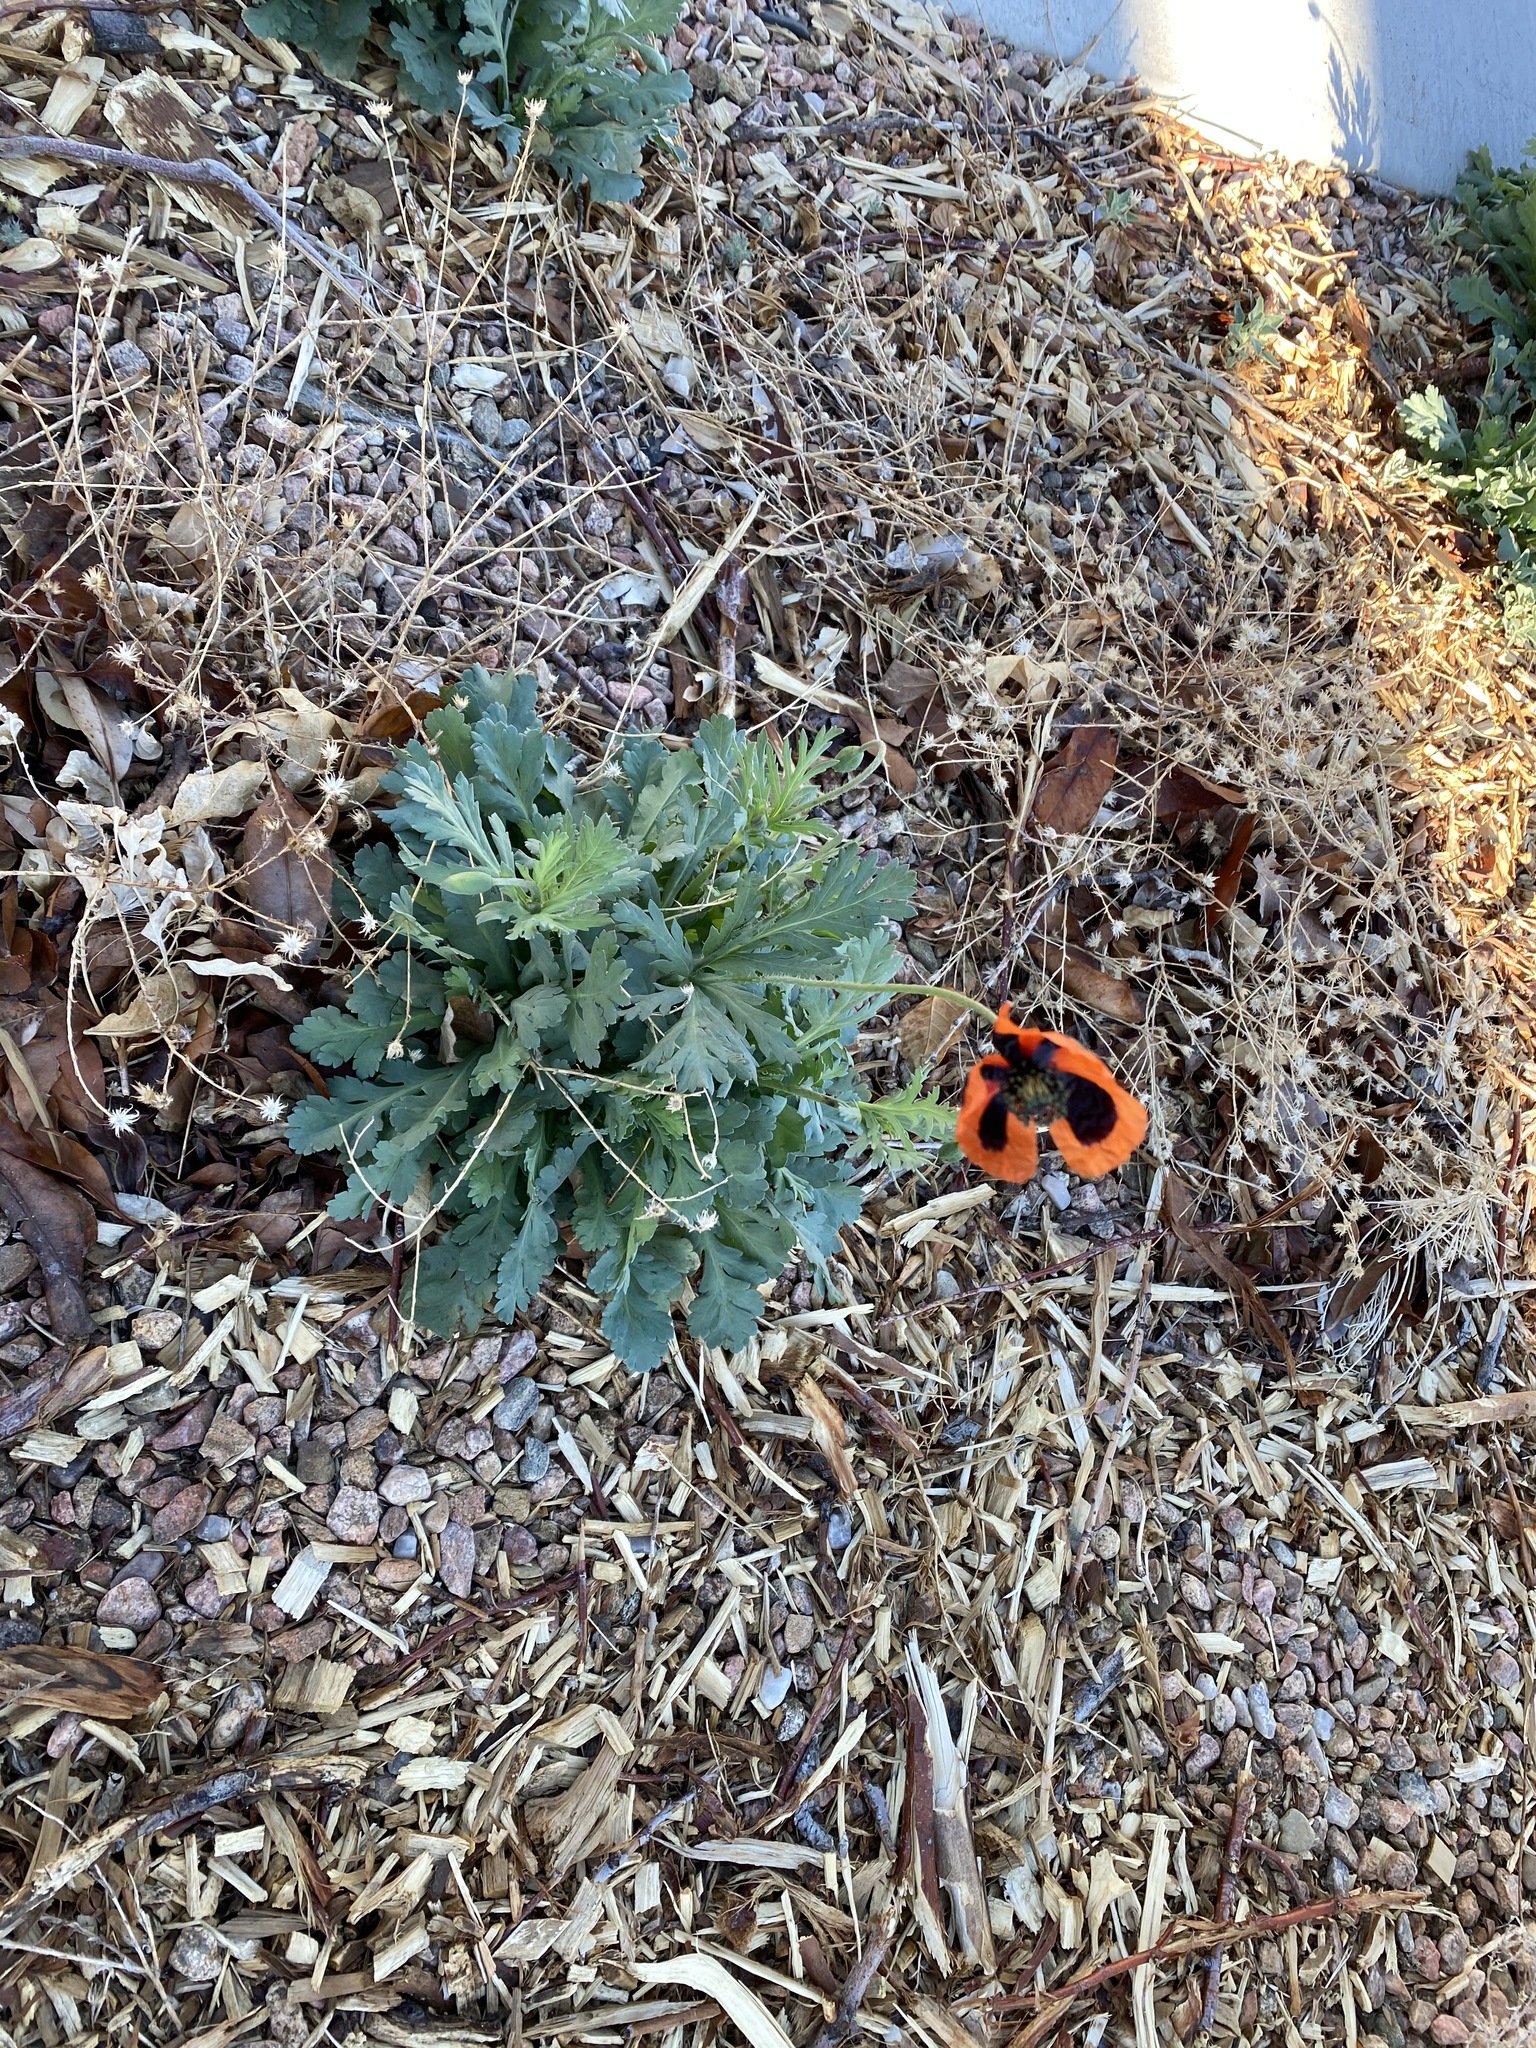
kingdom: Plantae
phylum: Tracheophyta
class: Magnoliopsida
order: Ranunculales
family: Papaveraceae
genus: Papaver
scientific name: Papaver dubium
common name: Long-headed poppy
